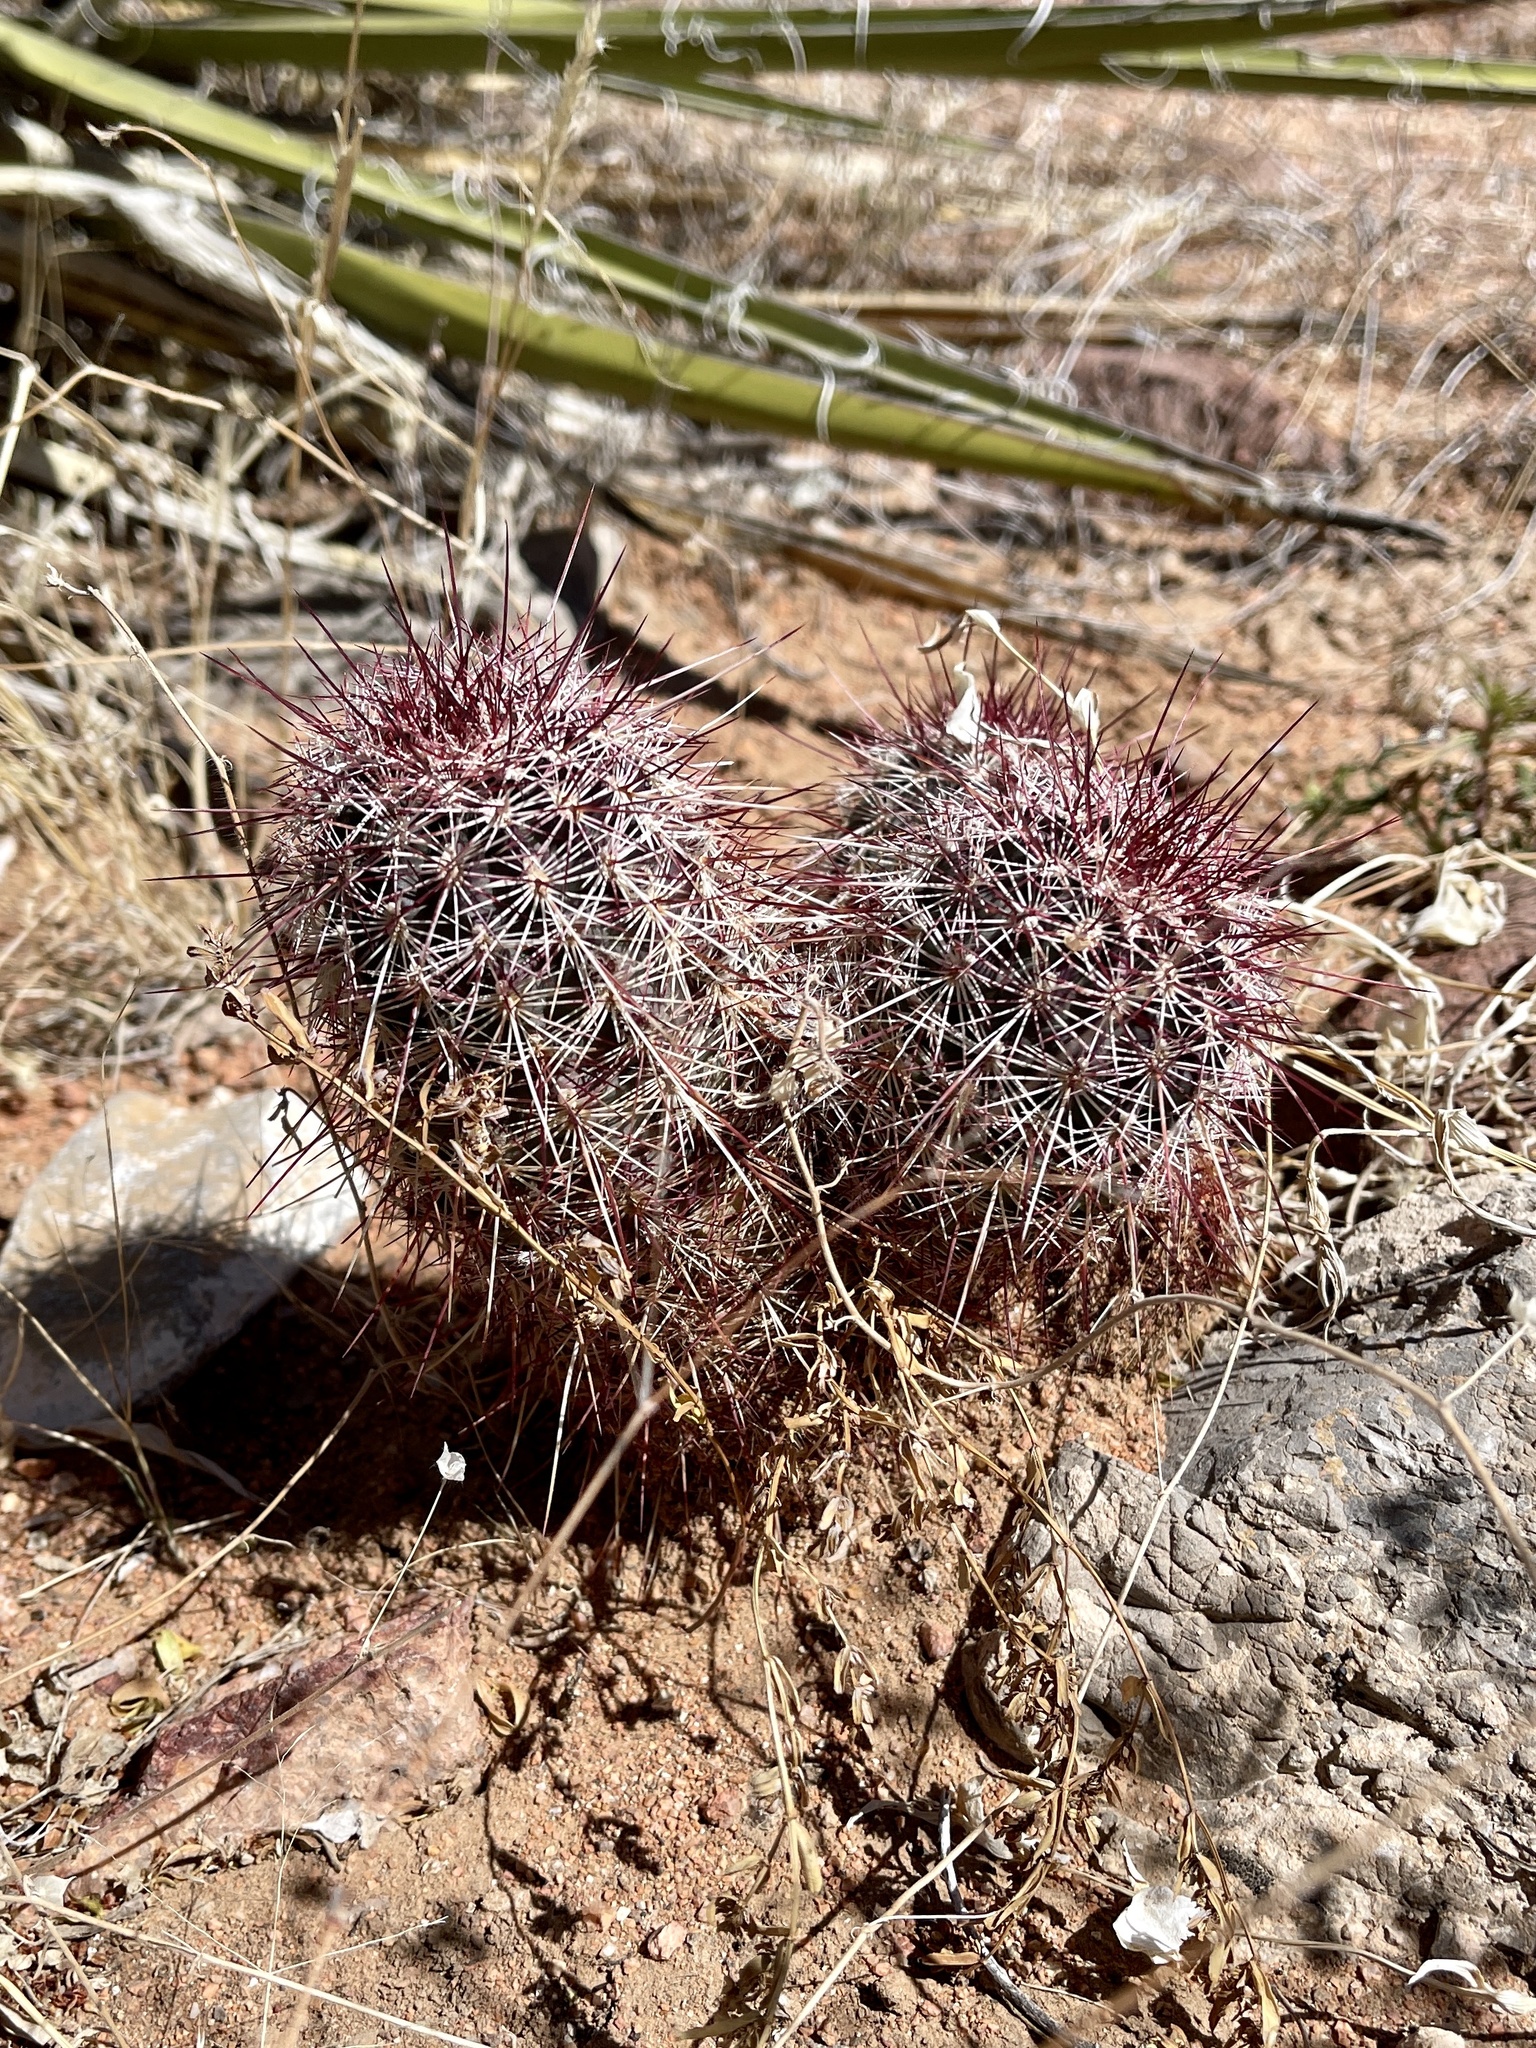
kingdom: Plantae
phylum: Tracheophyta
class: Magnoliopsida
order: Caryophyllales
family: Cactaceae
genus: Echinocereus
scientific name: Echinocereus viridiflorus
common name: Nylon hedgehog cactus
